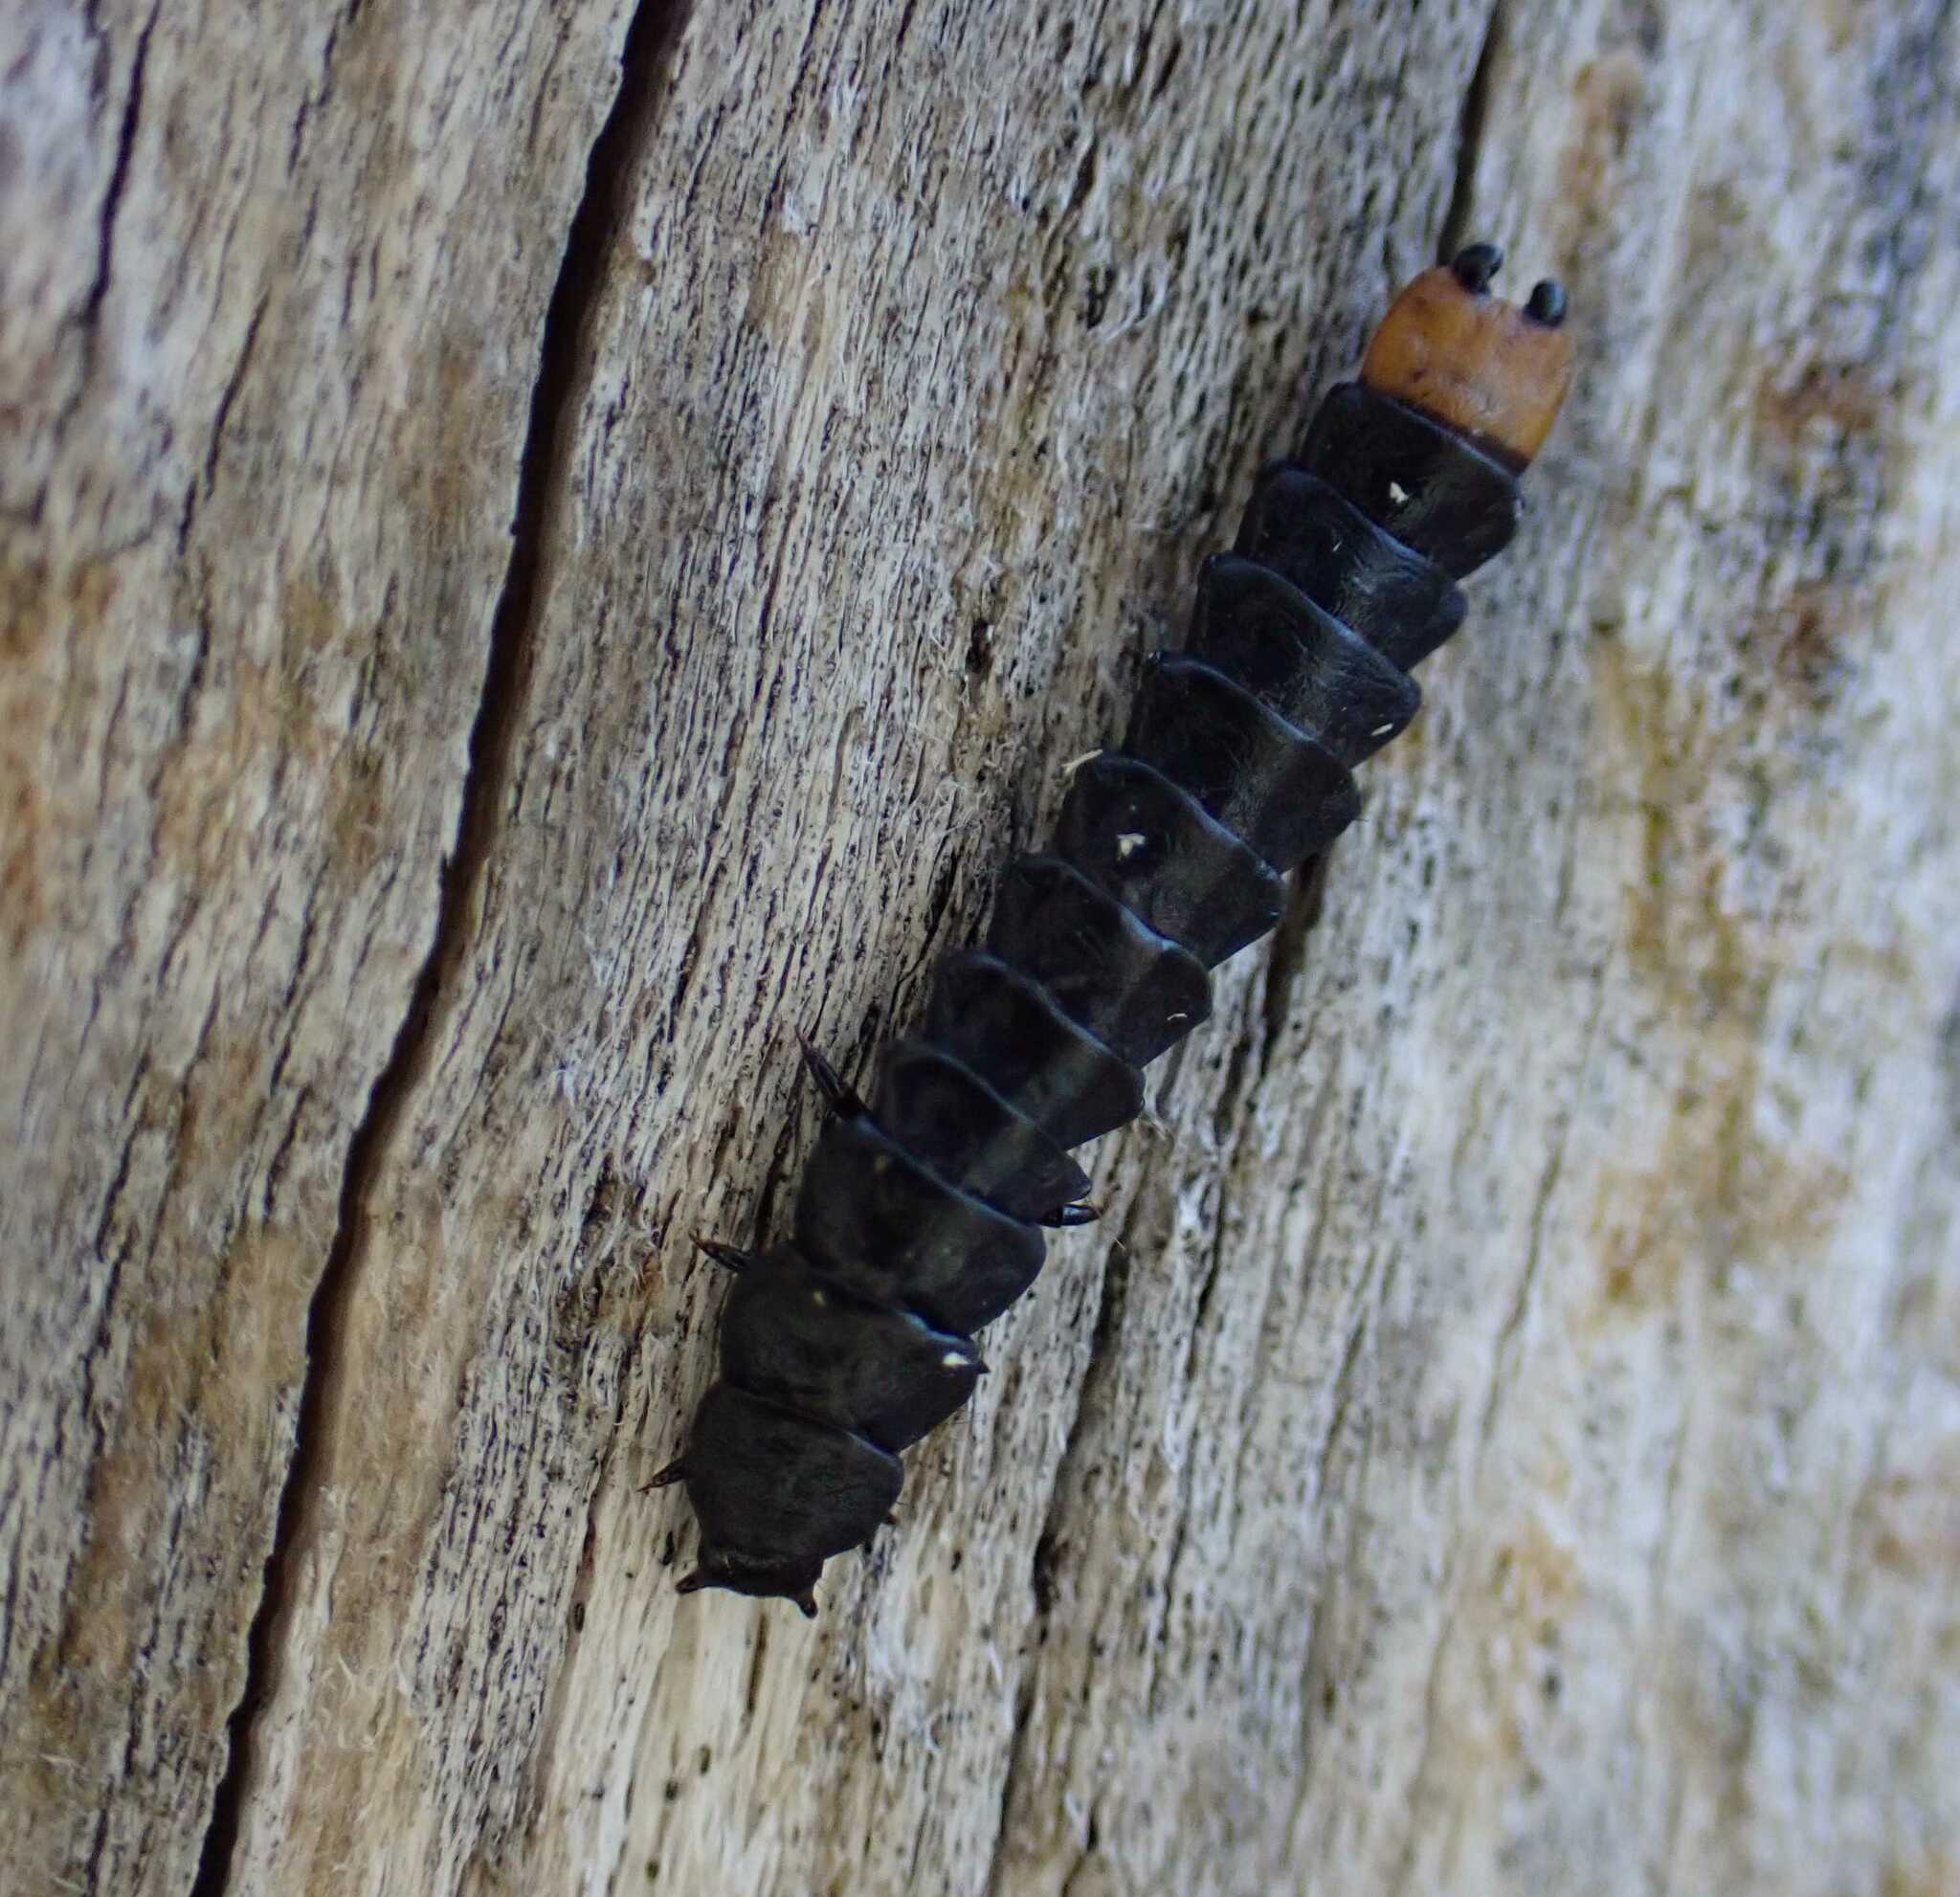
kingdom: Animalia
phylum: Arthropoda
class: Insecta
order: Coleoptera
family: Lycidae
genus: Lygistopterus
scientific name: Lygistopterus sanguineus
